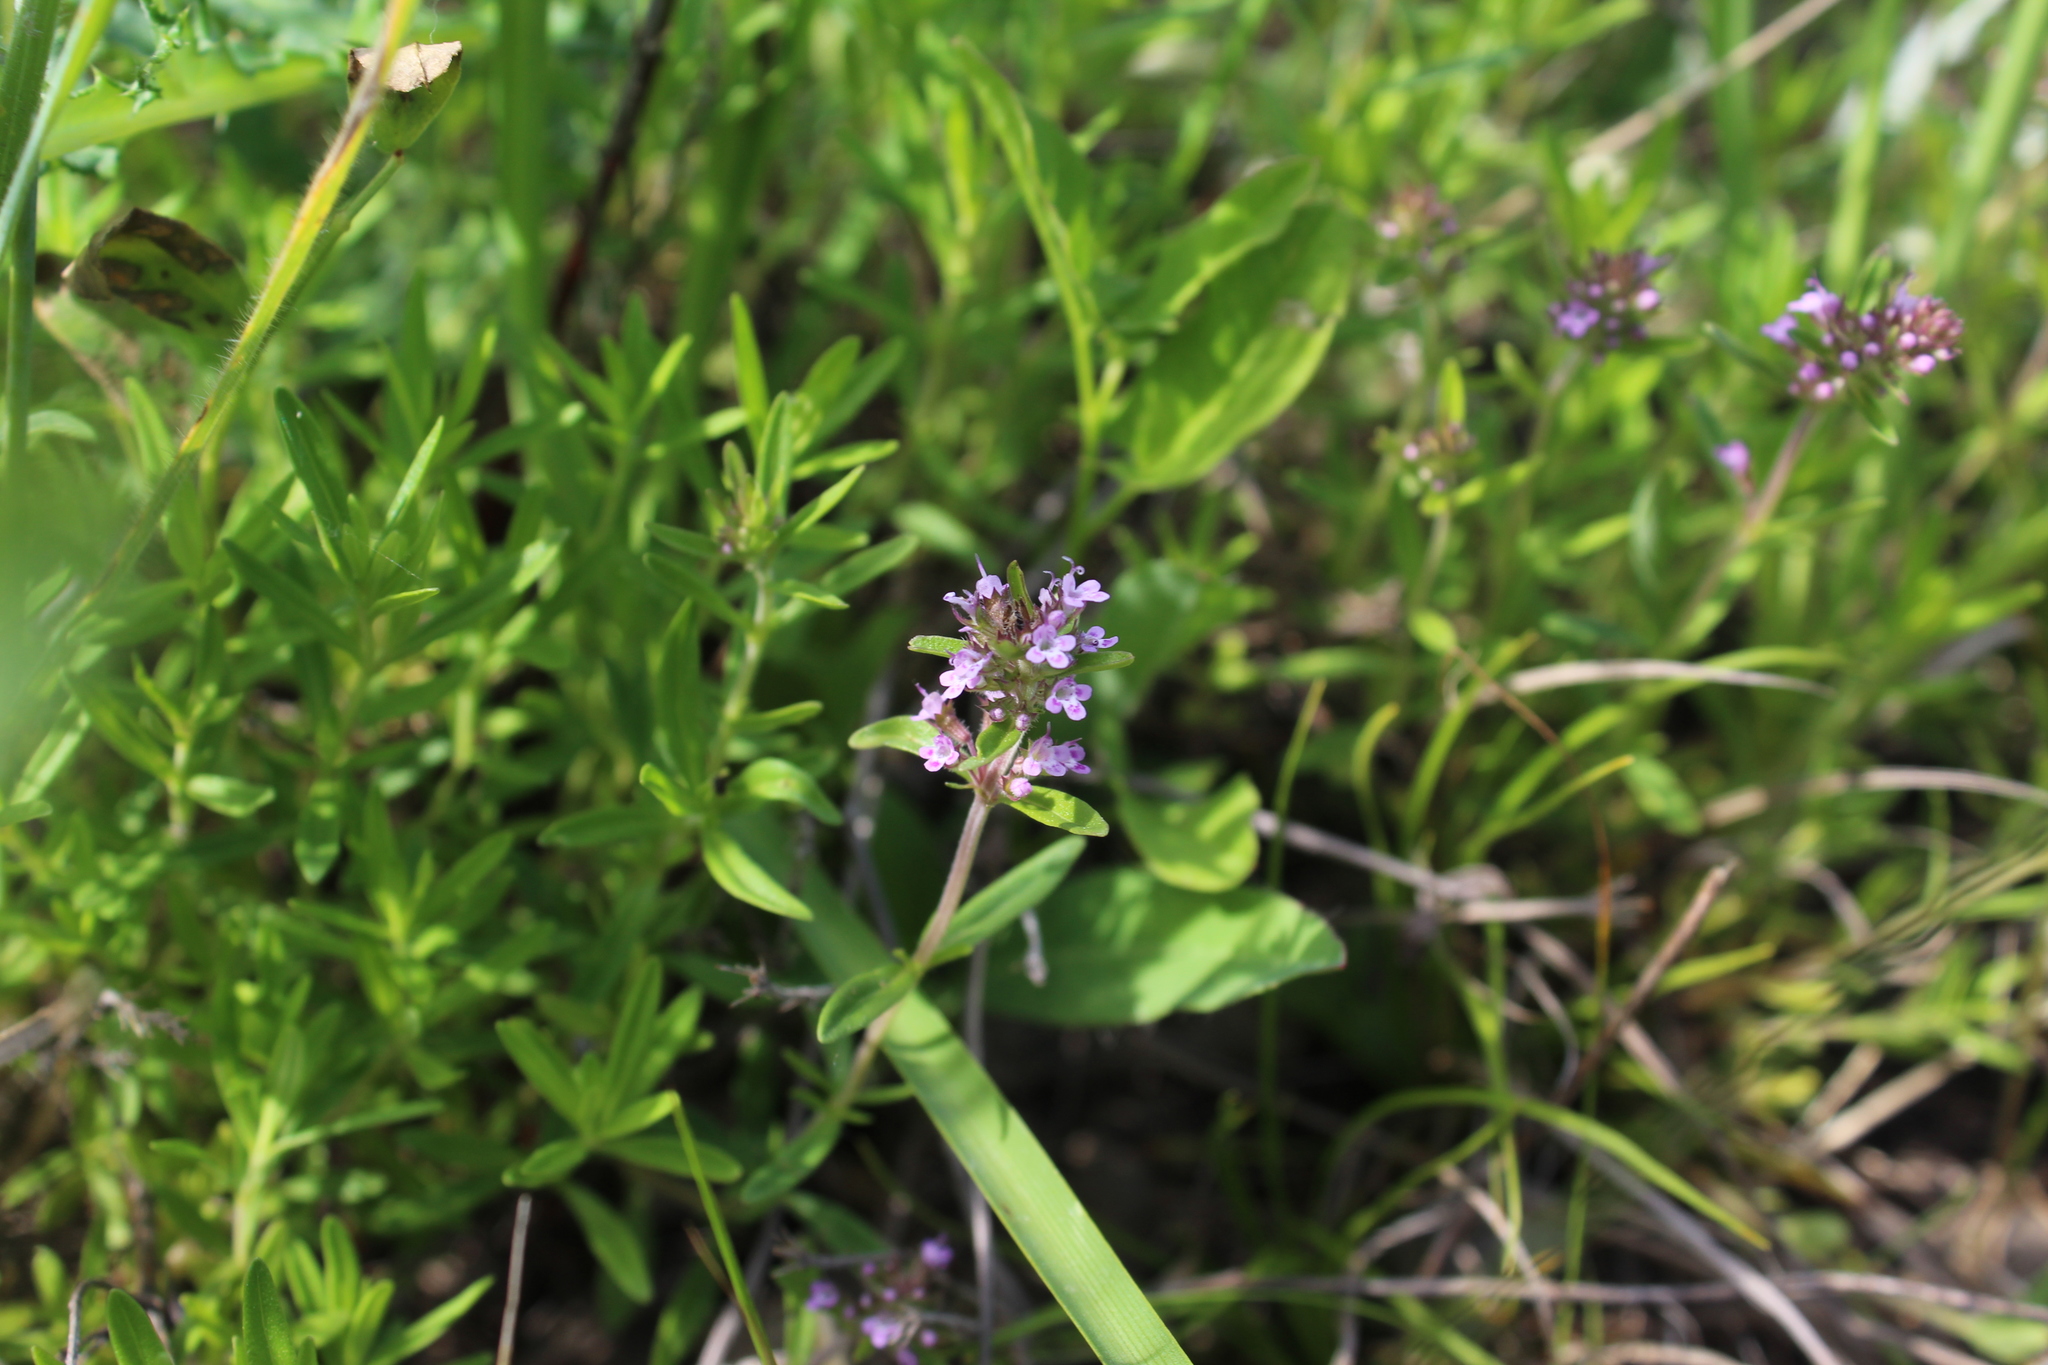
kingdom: Plantae
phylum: Tracheophyta
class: Magnoliopsida
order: Lamiales
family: Lamiaceae
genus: Thymus
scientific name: Thymus pannonicus
